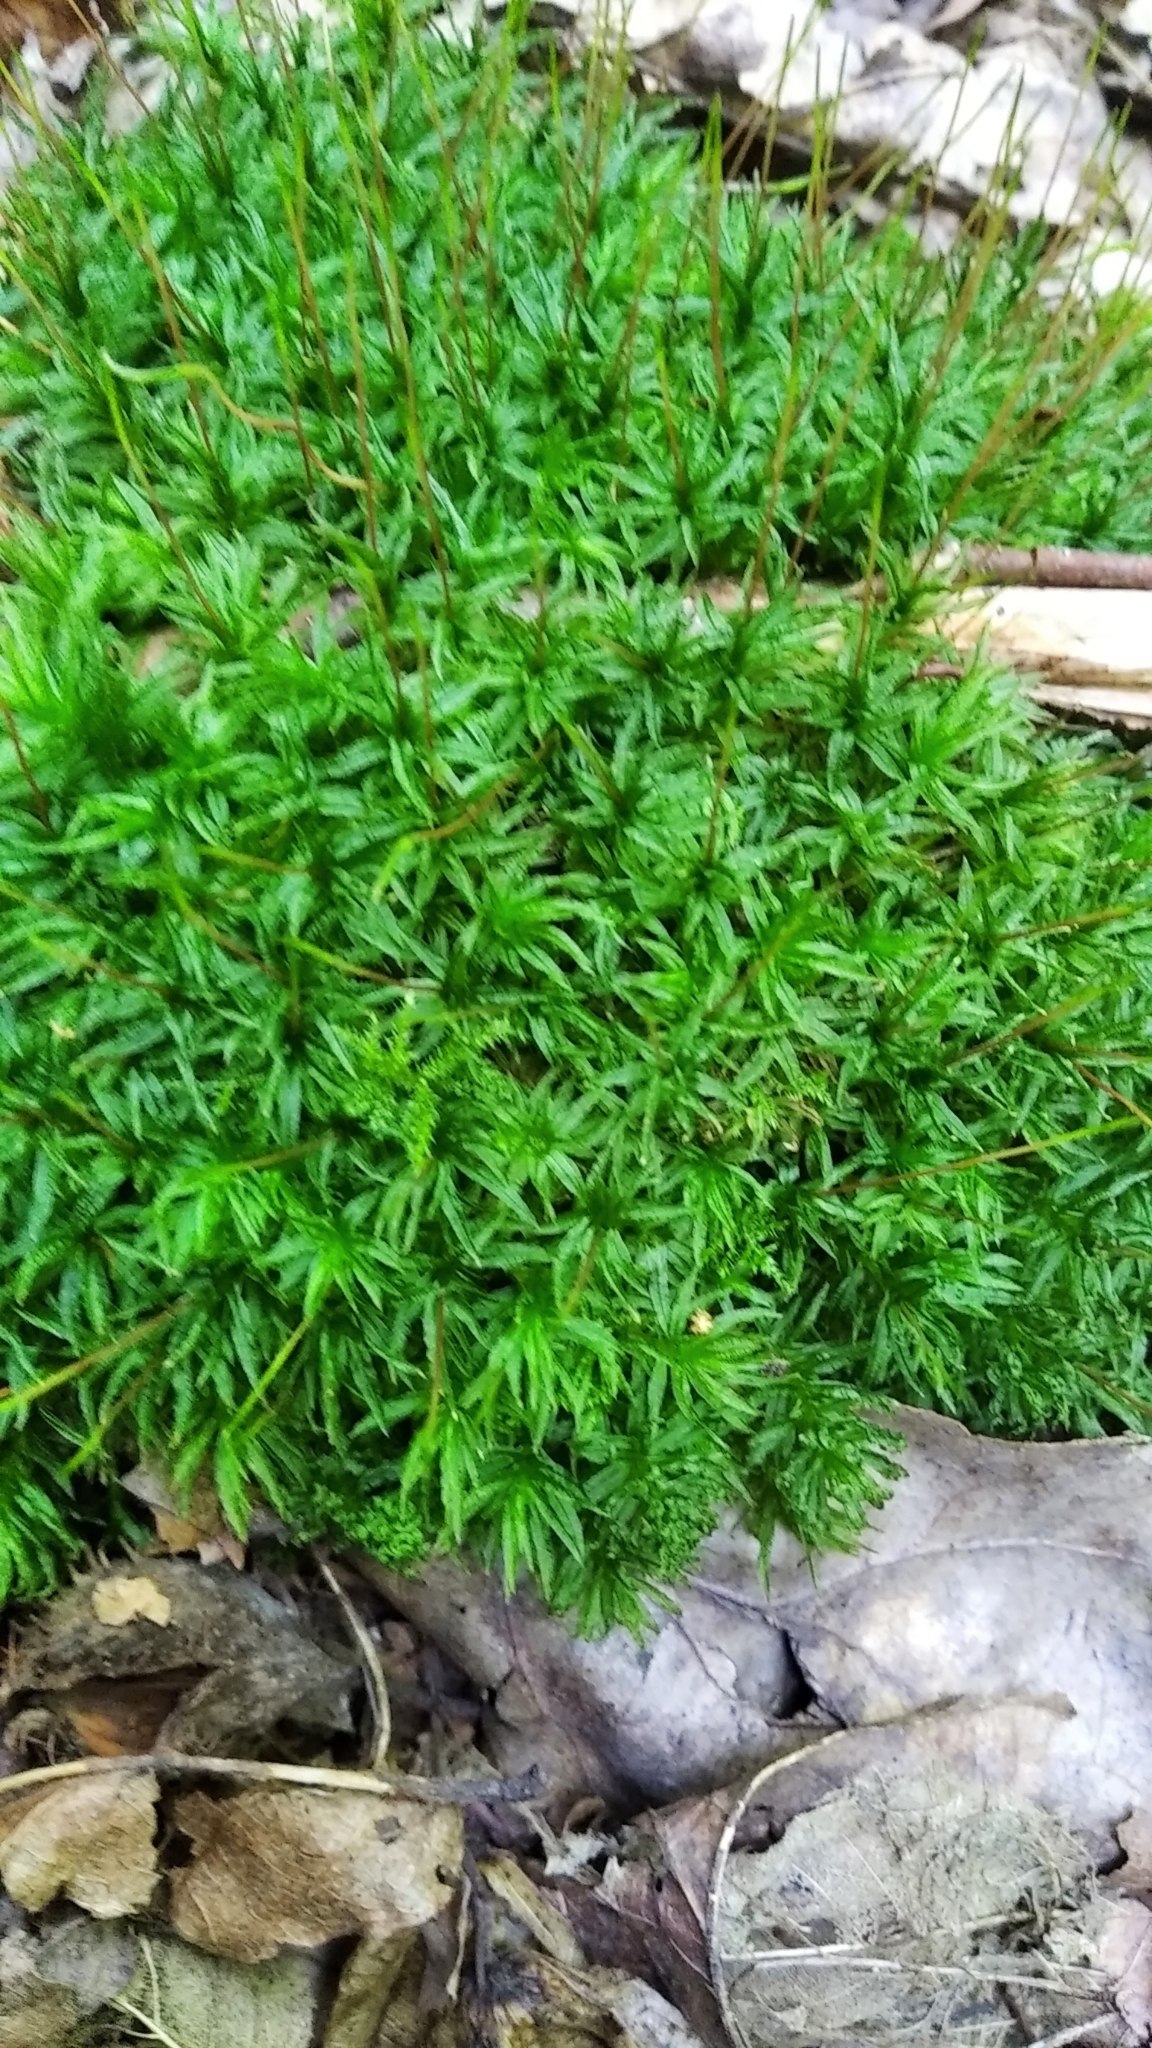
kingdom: Plantae
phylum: Bryophyta
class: Polytrichopsida
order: Polytrichales
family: Polytrichaceae
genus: Atrichum
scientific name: Atrichum undulatum
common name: Common smoothcap
